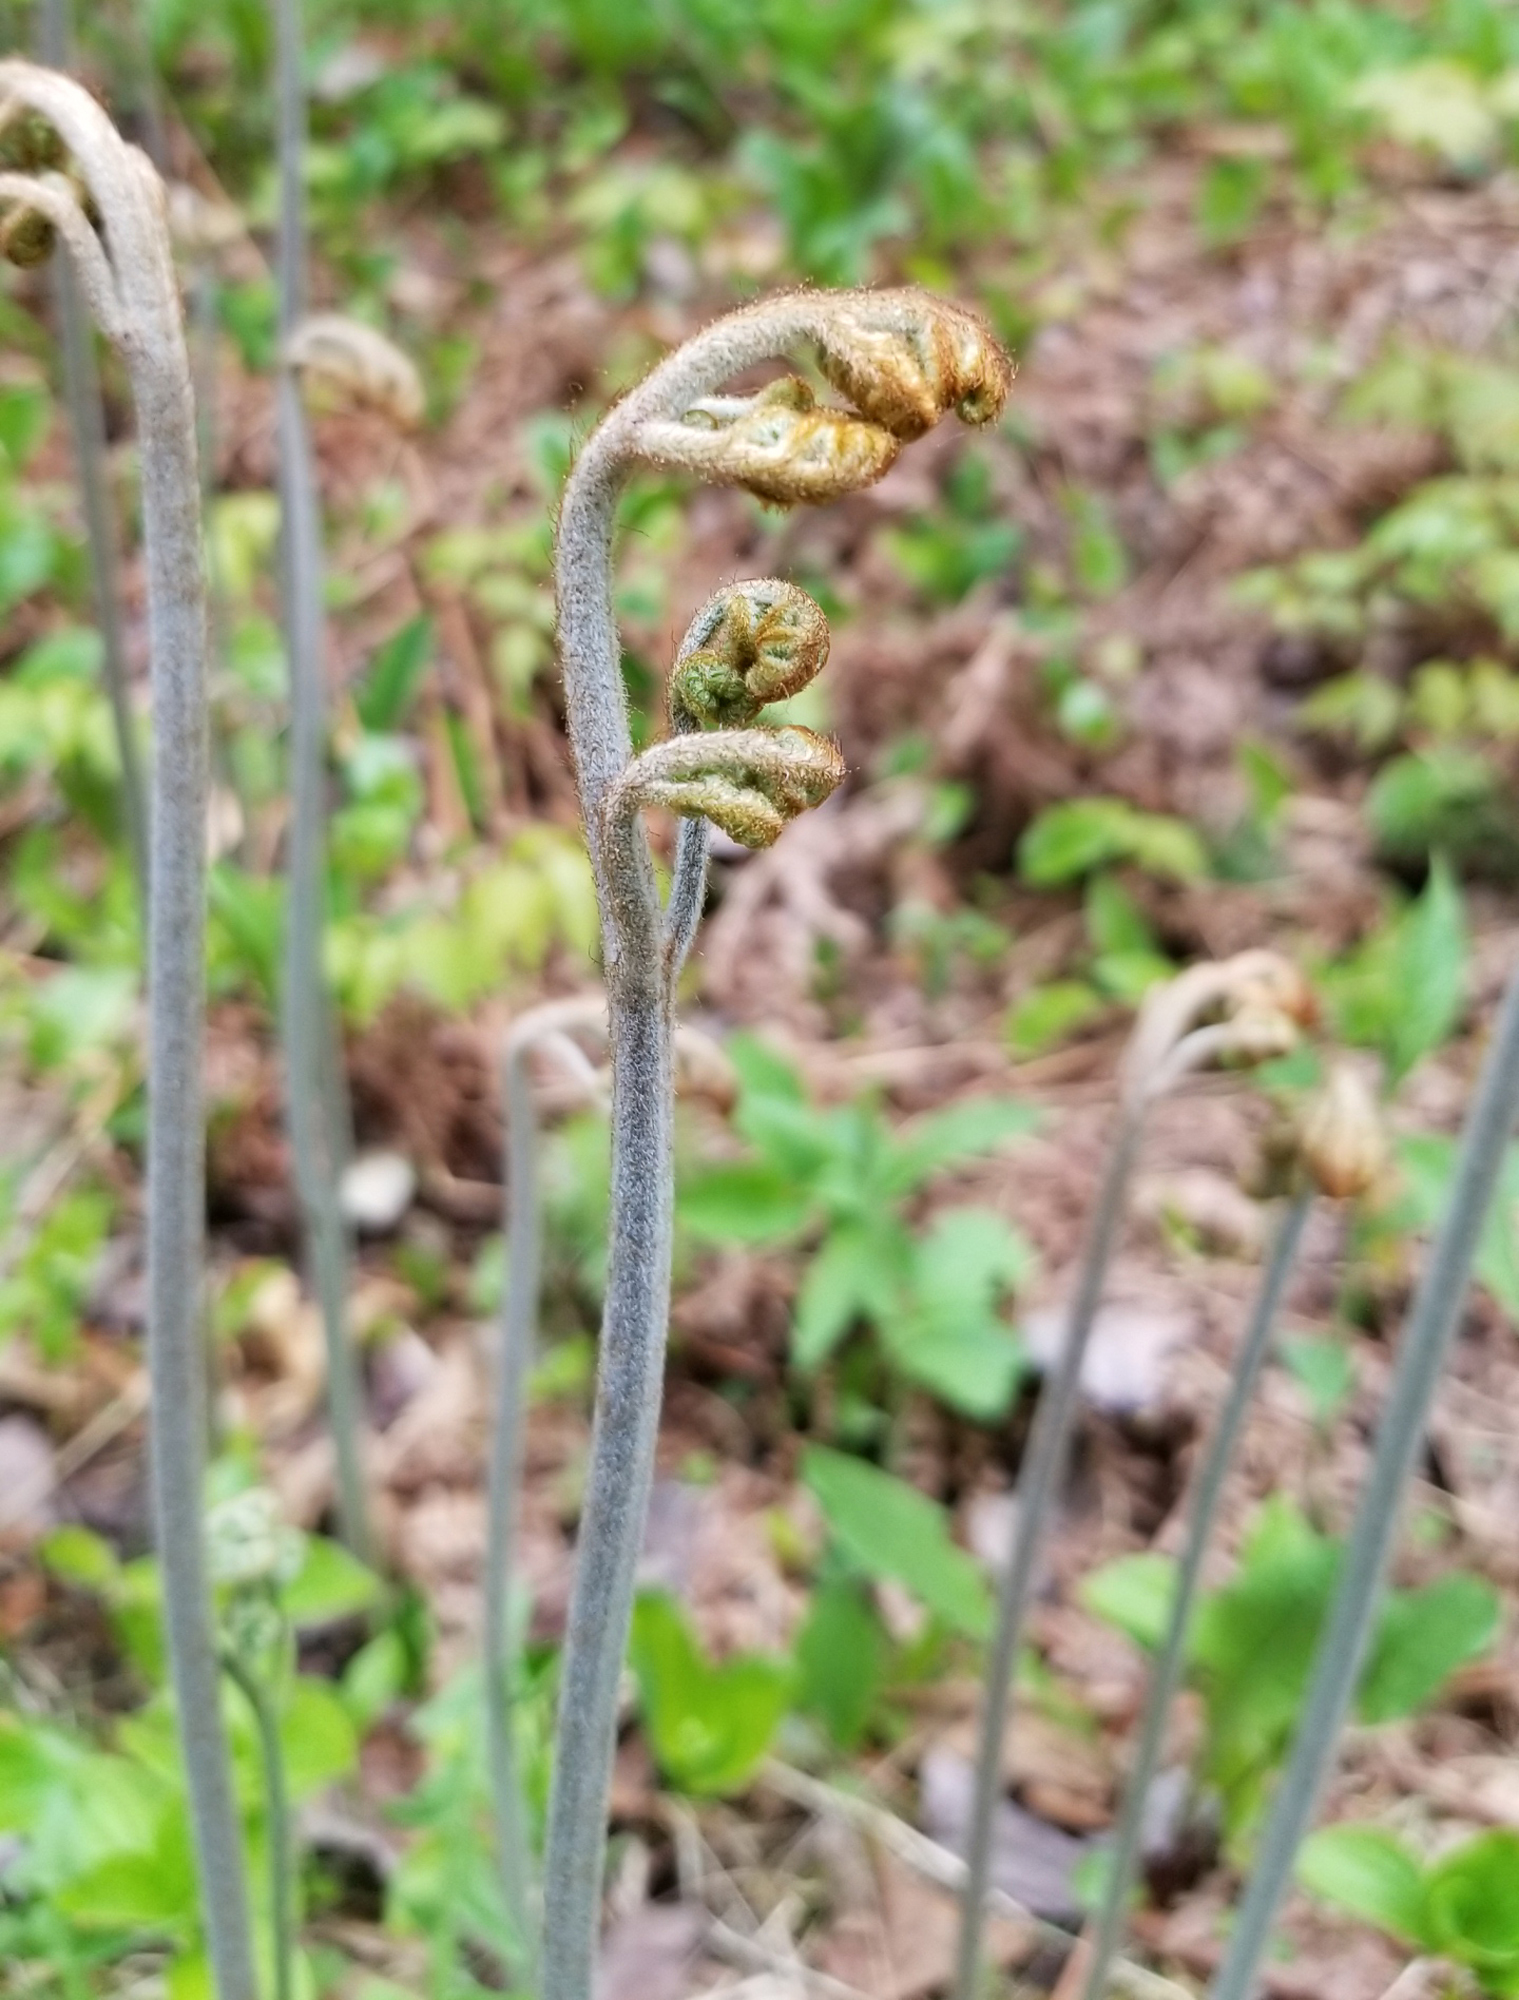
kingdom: Plantae
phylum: Tracheophyta
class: Polypodiopsida
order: Polypodiales
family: Dennstaedtiaceae
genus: Pteridium
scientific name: Pteridium aquilinum
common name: Bracken
